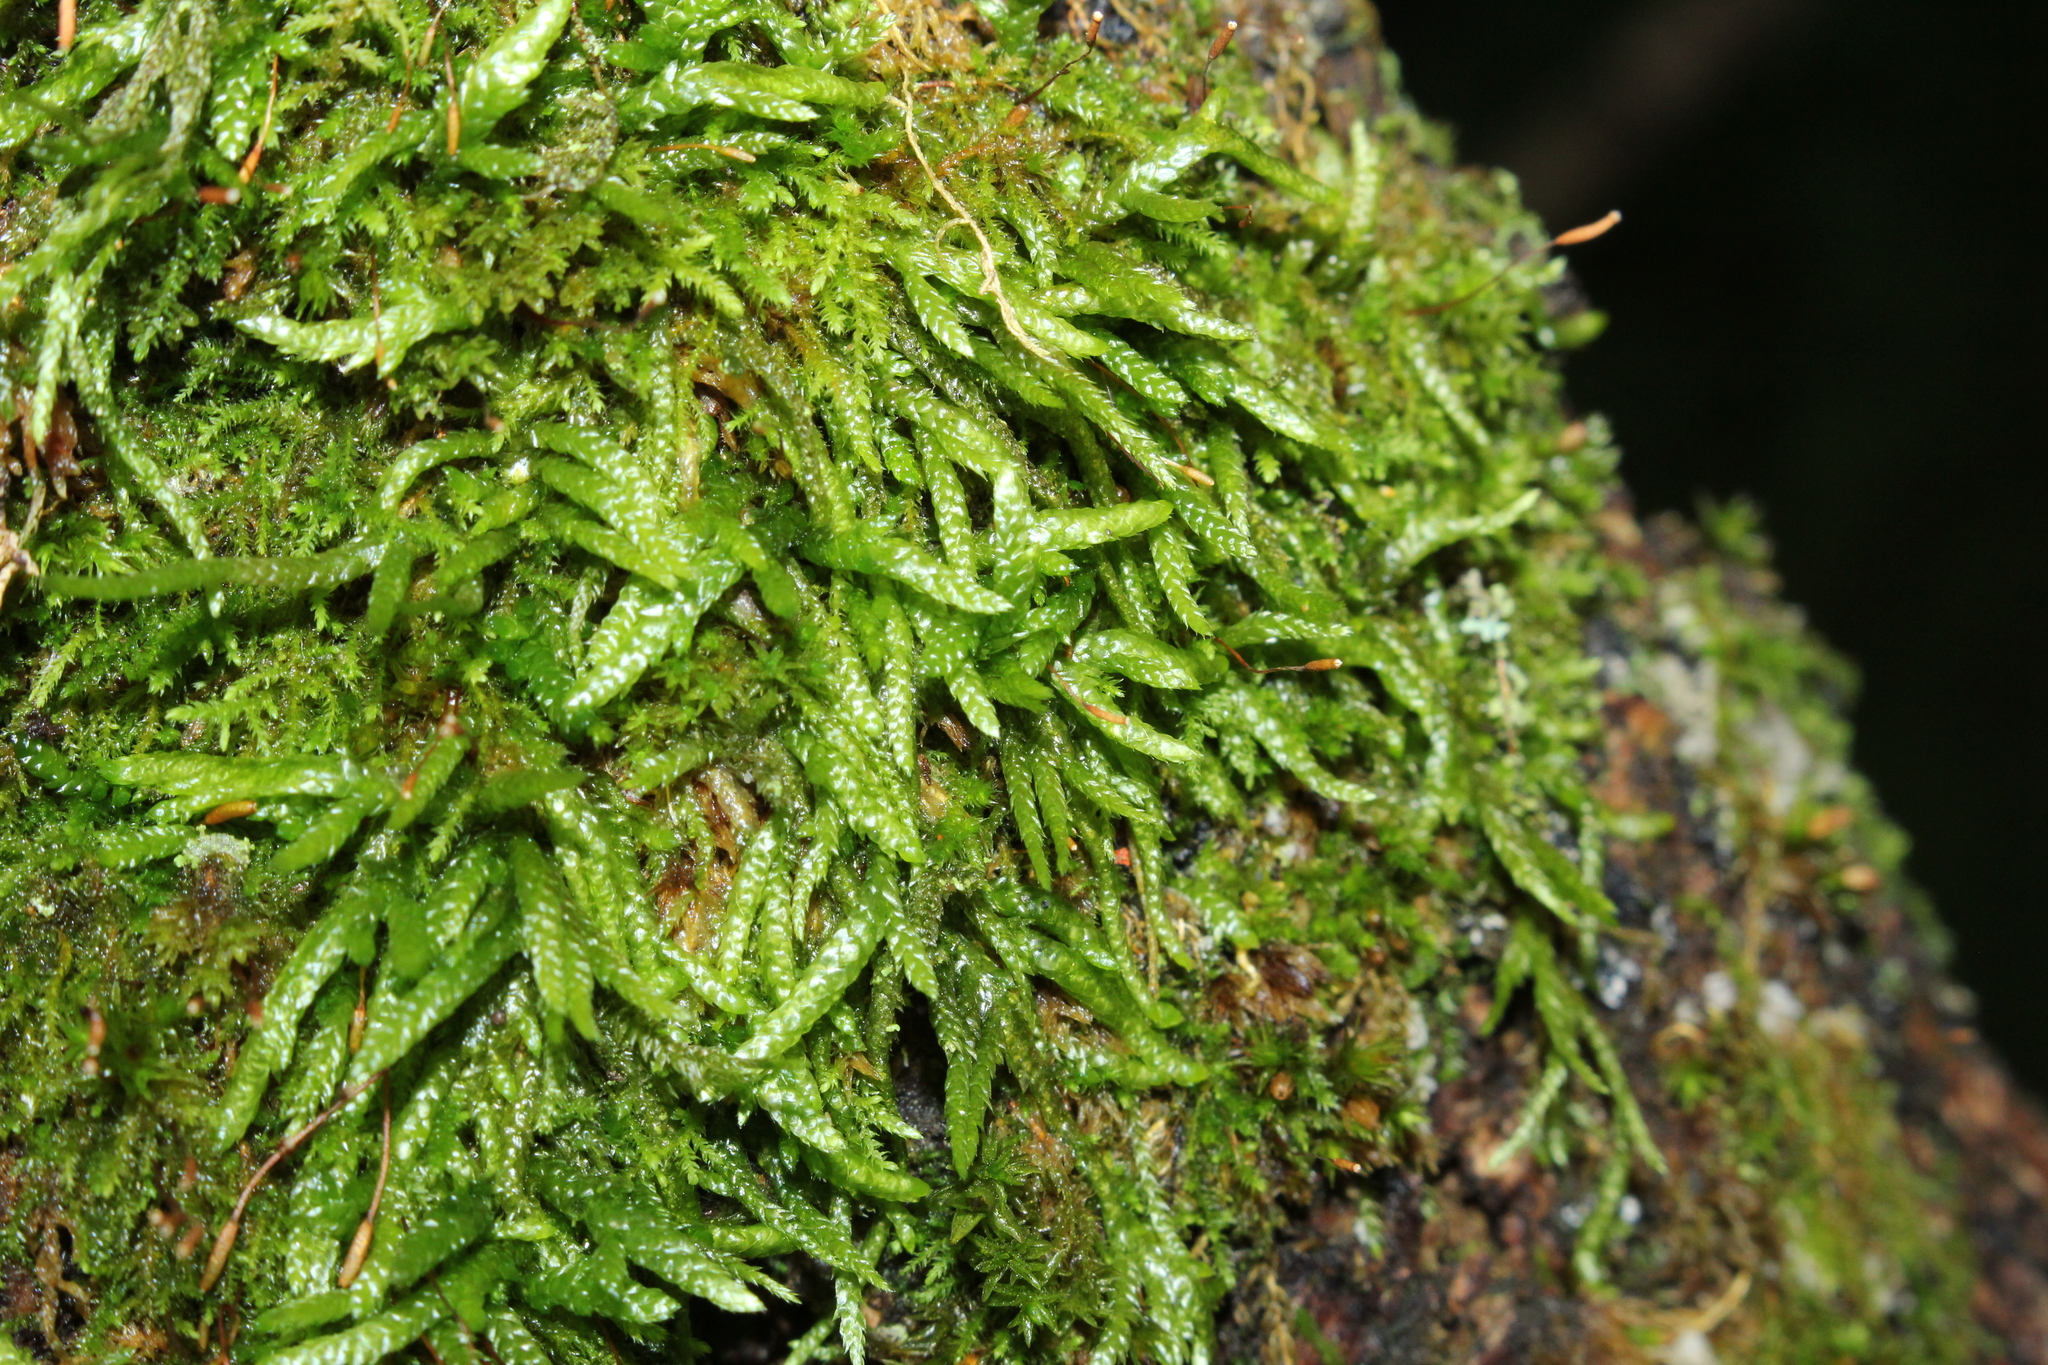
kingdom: Plantae
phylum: Bryophyta
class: Bryopsida
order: Hypnales
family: Entodontaceae
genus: Entodon
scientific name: Entodon seductrix
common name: Round-stemmed entodon moss
